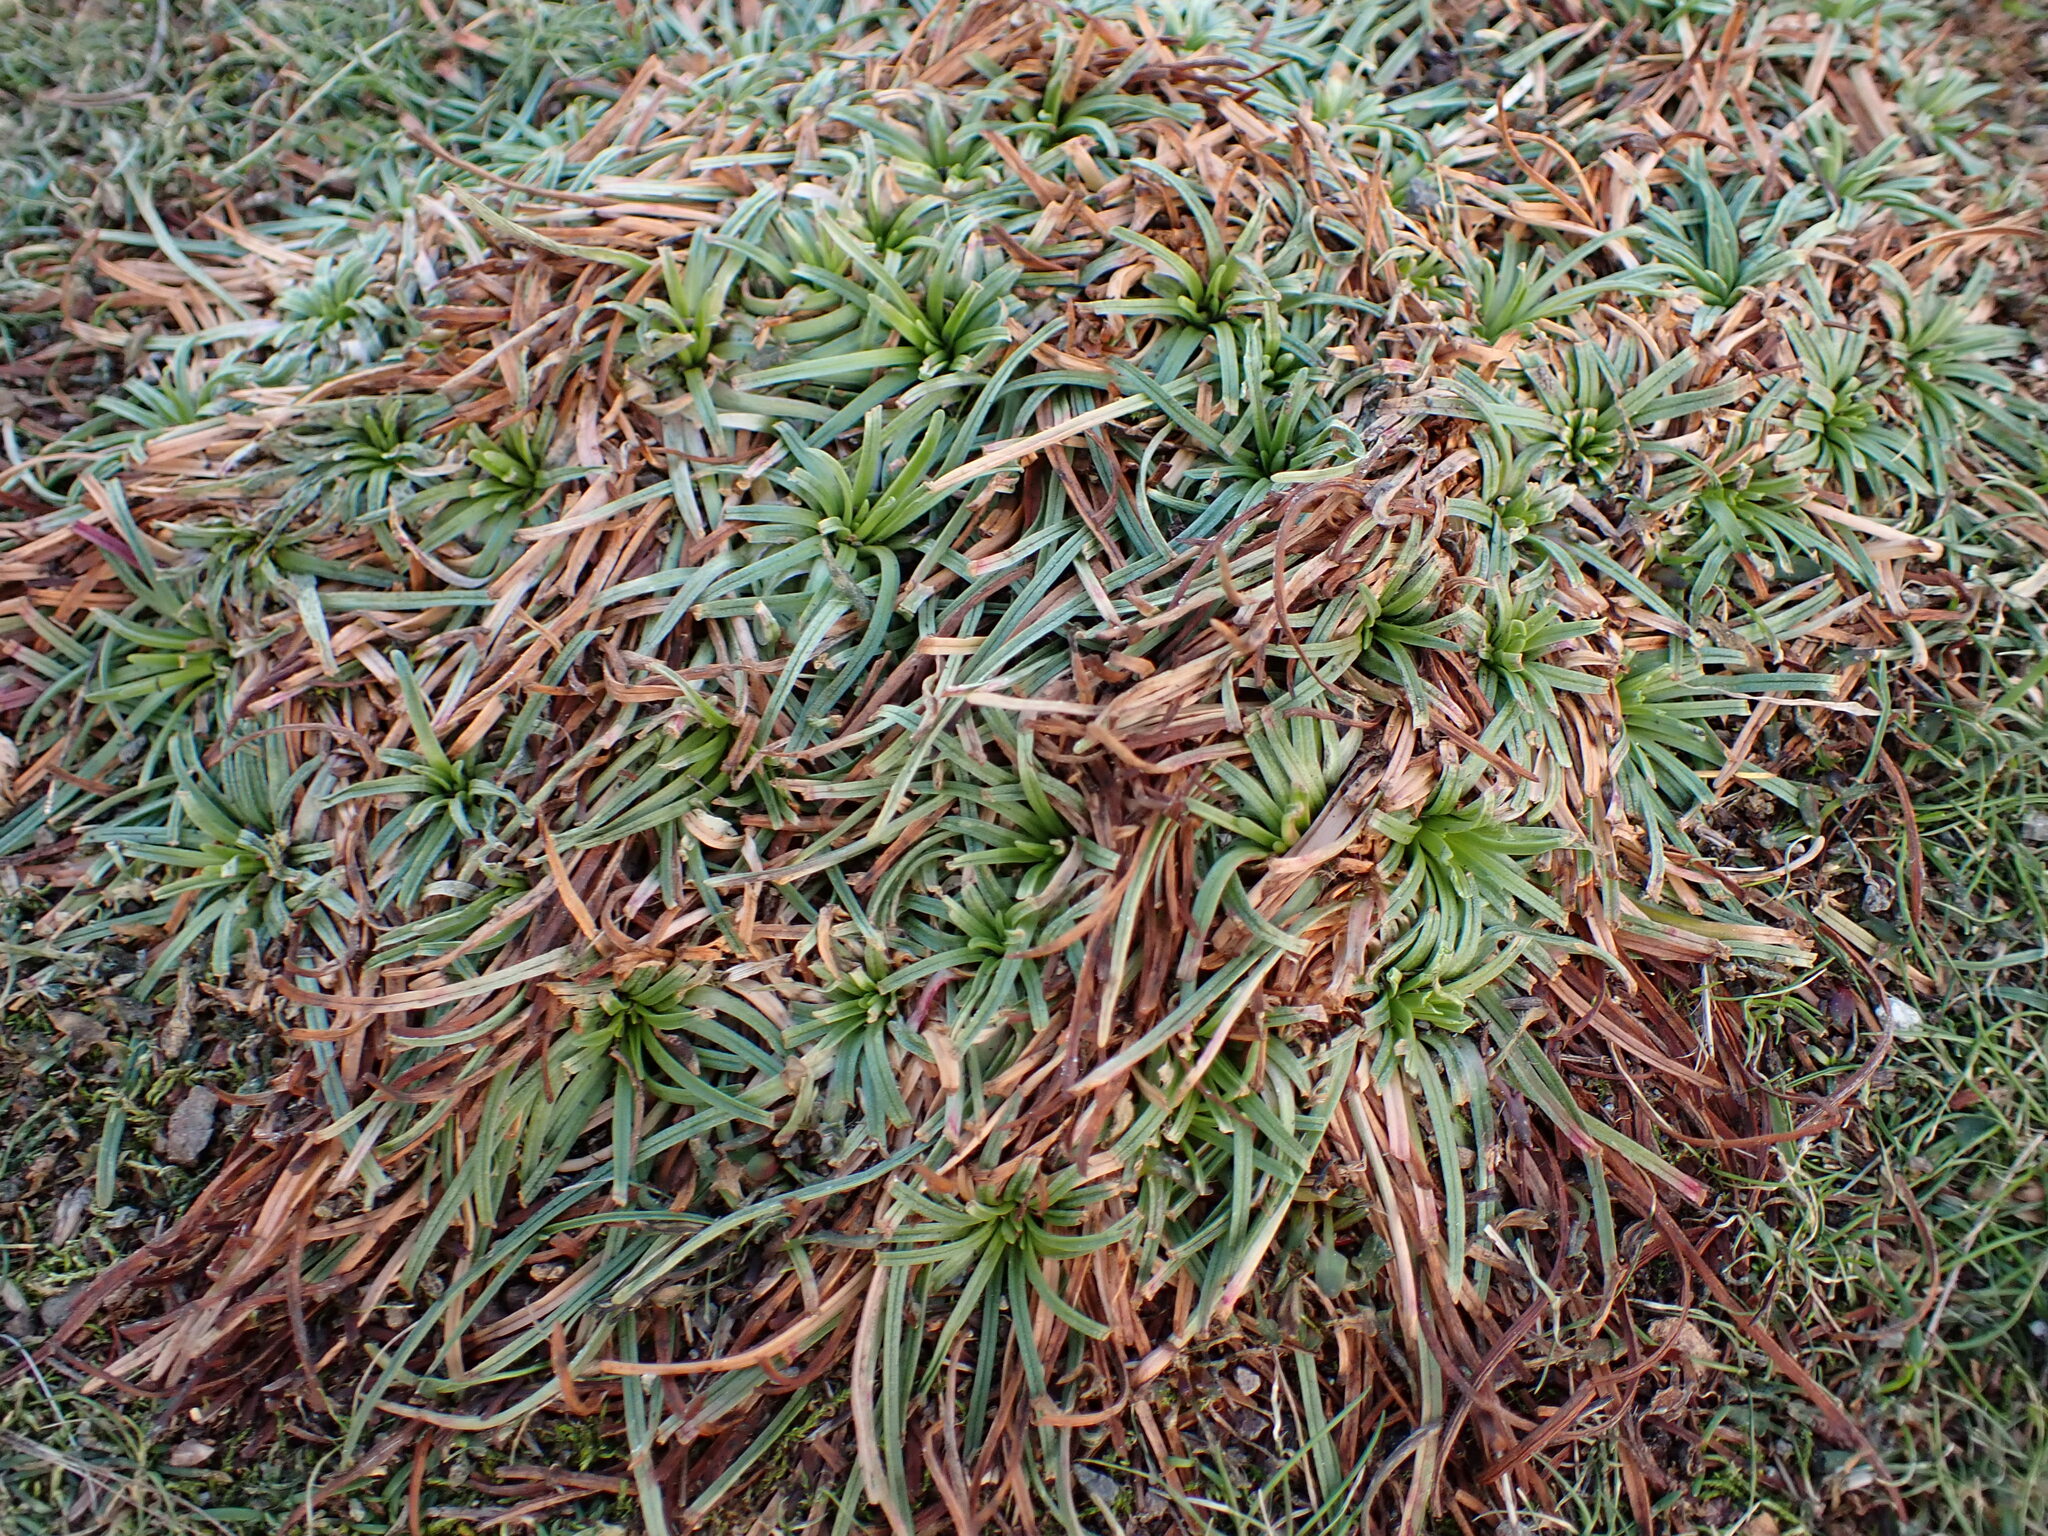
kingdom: Plantae
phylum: Tracheophyta
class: Magnoliopsida
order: Caryophyllales
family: Plumbaginaceae
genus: Armeria
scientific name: Armeria maritima
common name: Thrift
